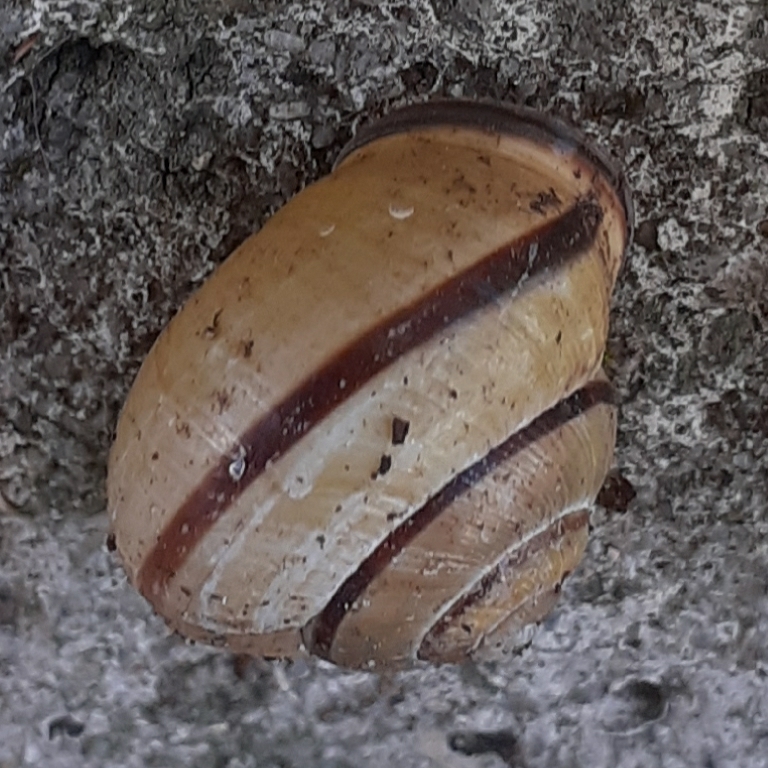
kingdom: Animalia
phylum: Mollusca
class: Gastropoda
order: Stylommatophora
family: Helicidae
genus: Cepaea
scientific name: Cepaea nemoralis
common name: Grovesnail
